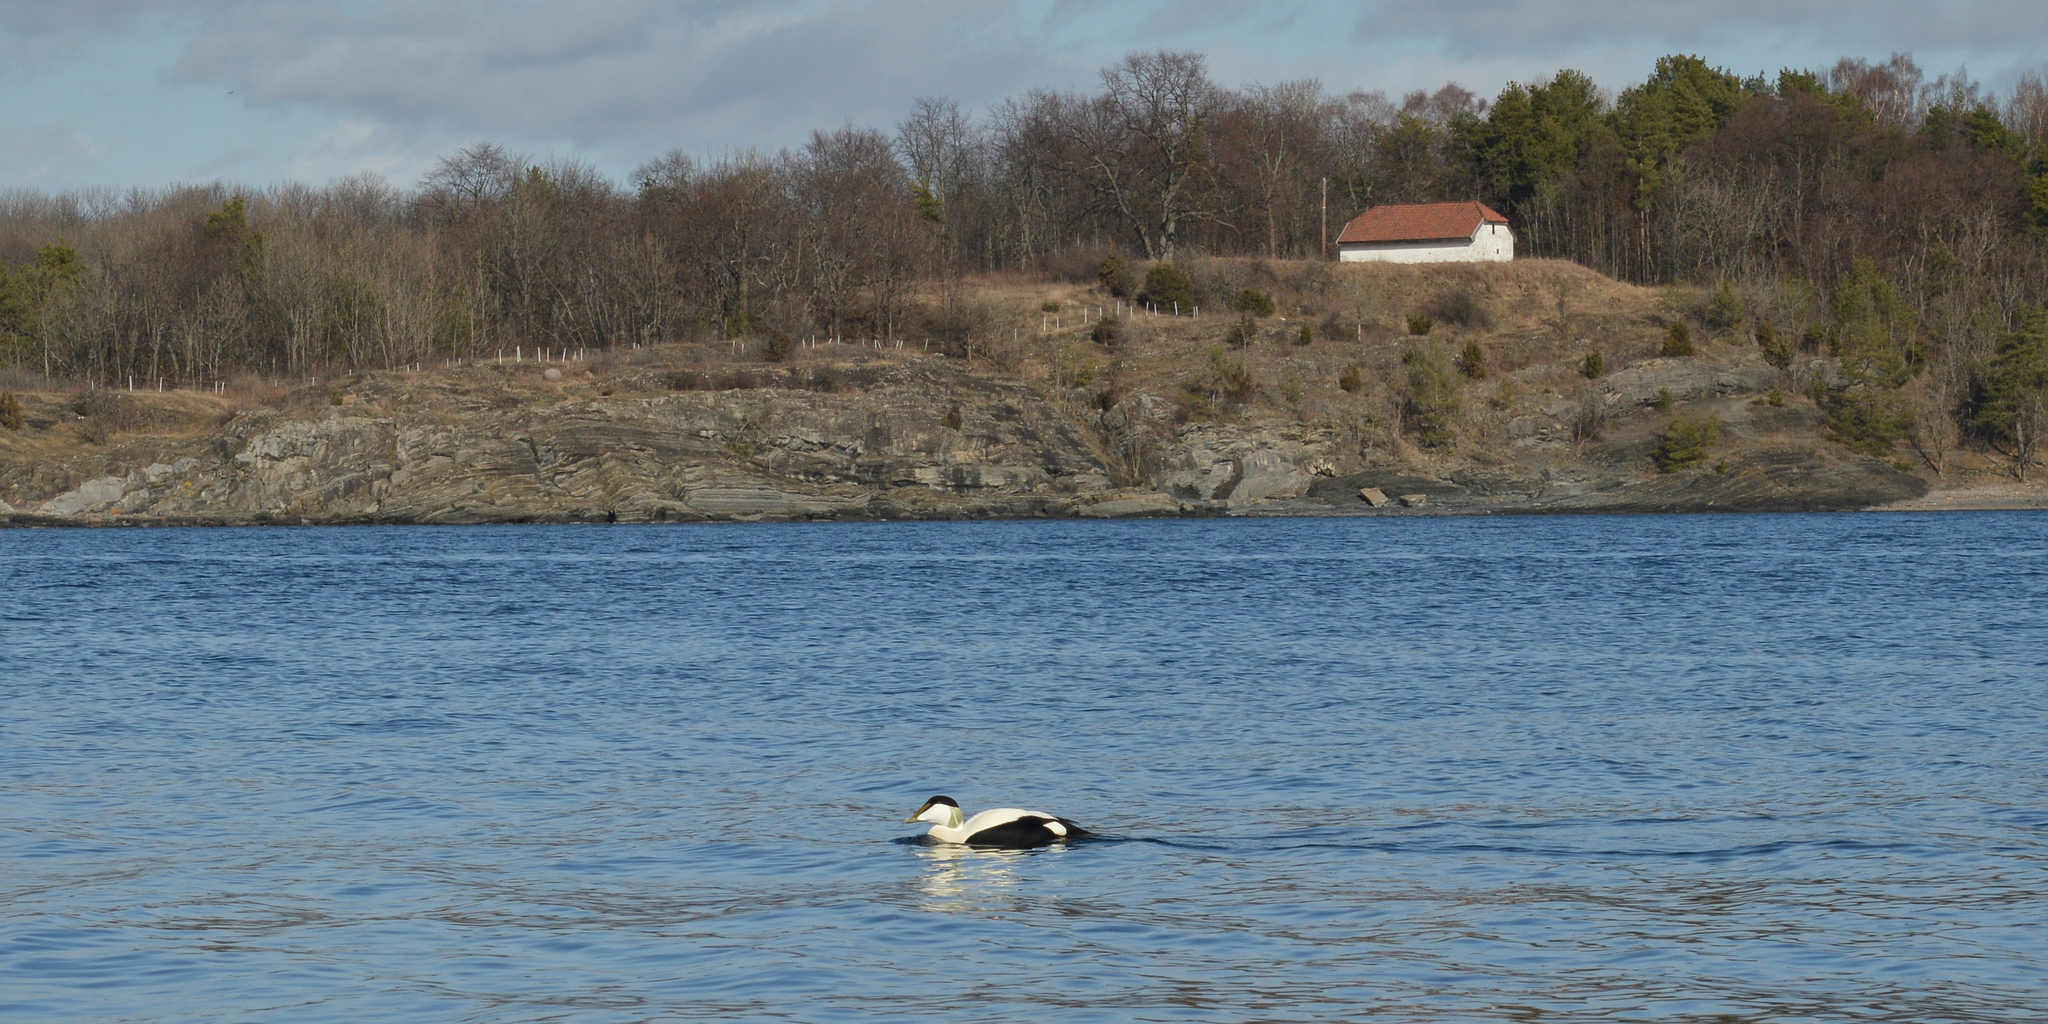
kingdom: Animalia
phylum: Chordata
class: Aves
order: Anseriformes
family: Anatidae
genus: Somateria
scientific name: Somateria mollissima
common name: Common eider
